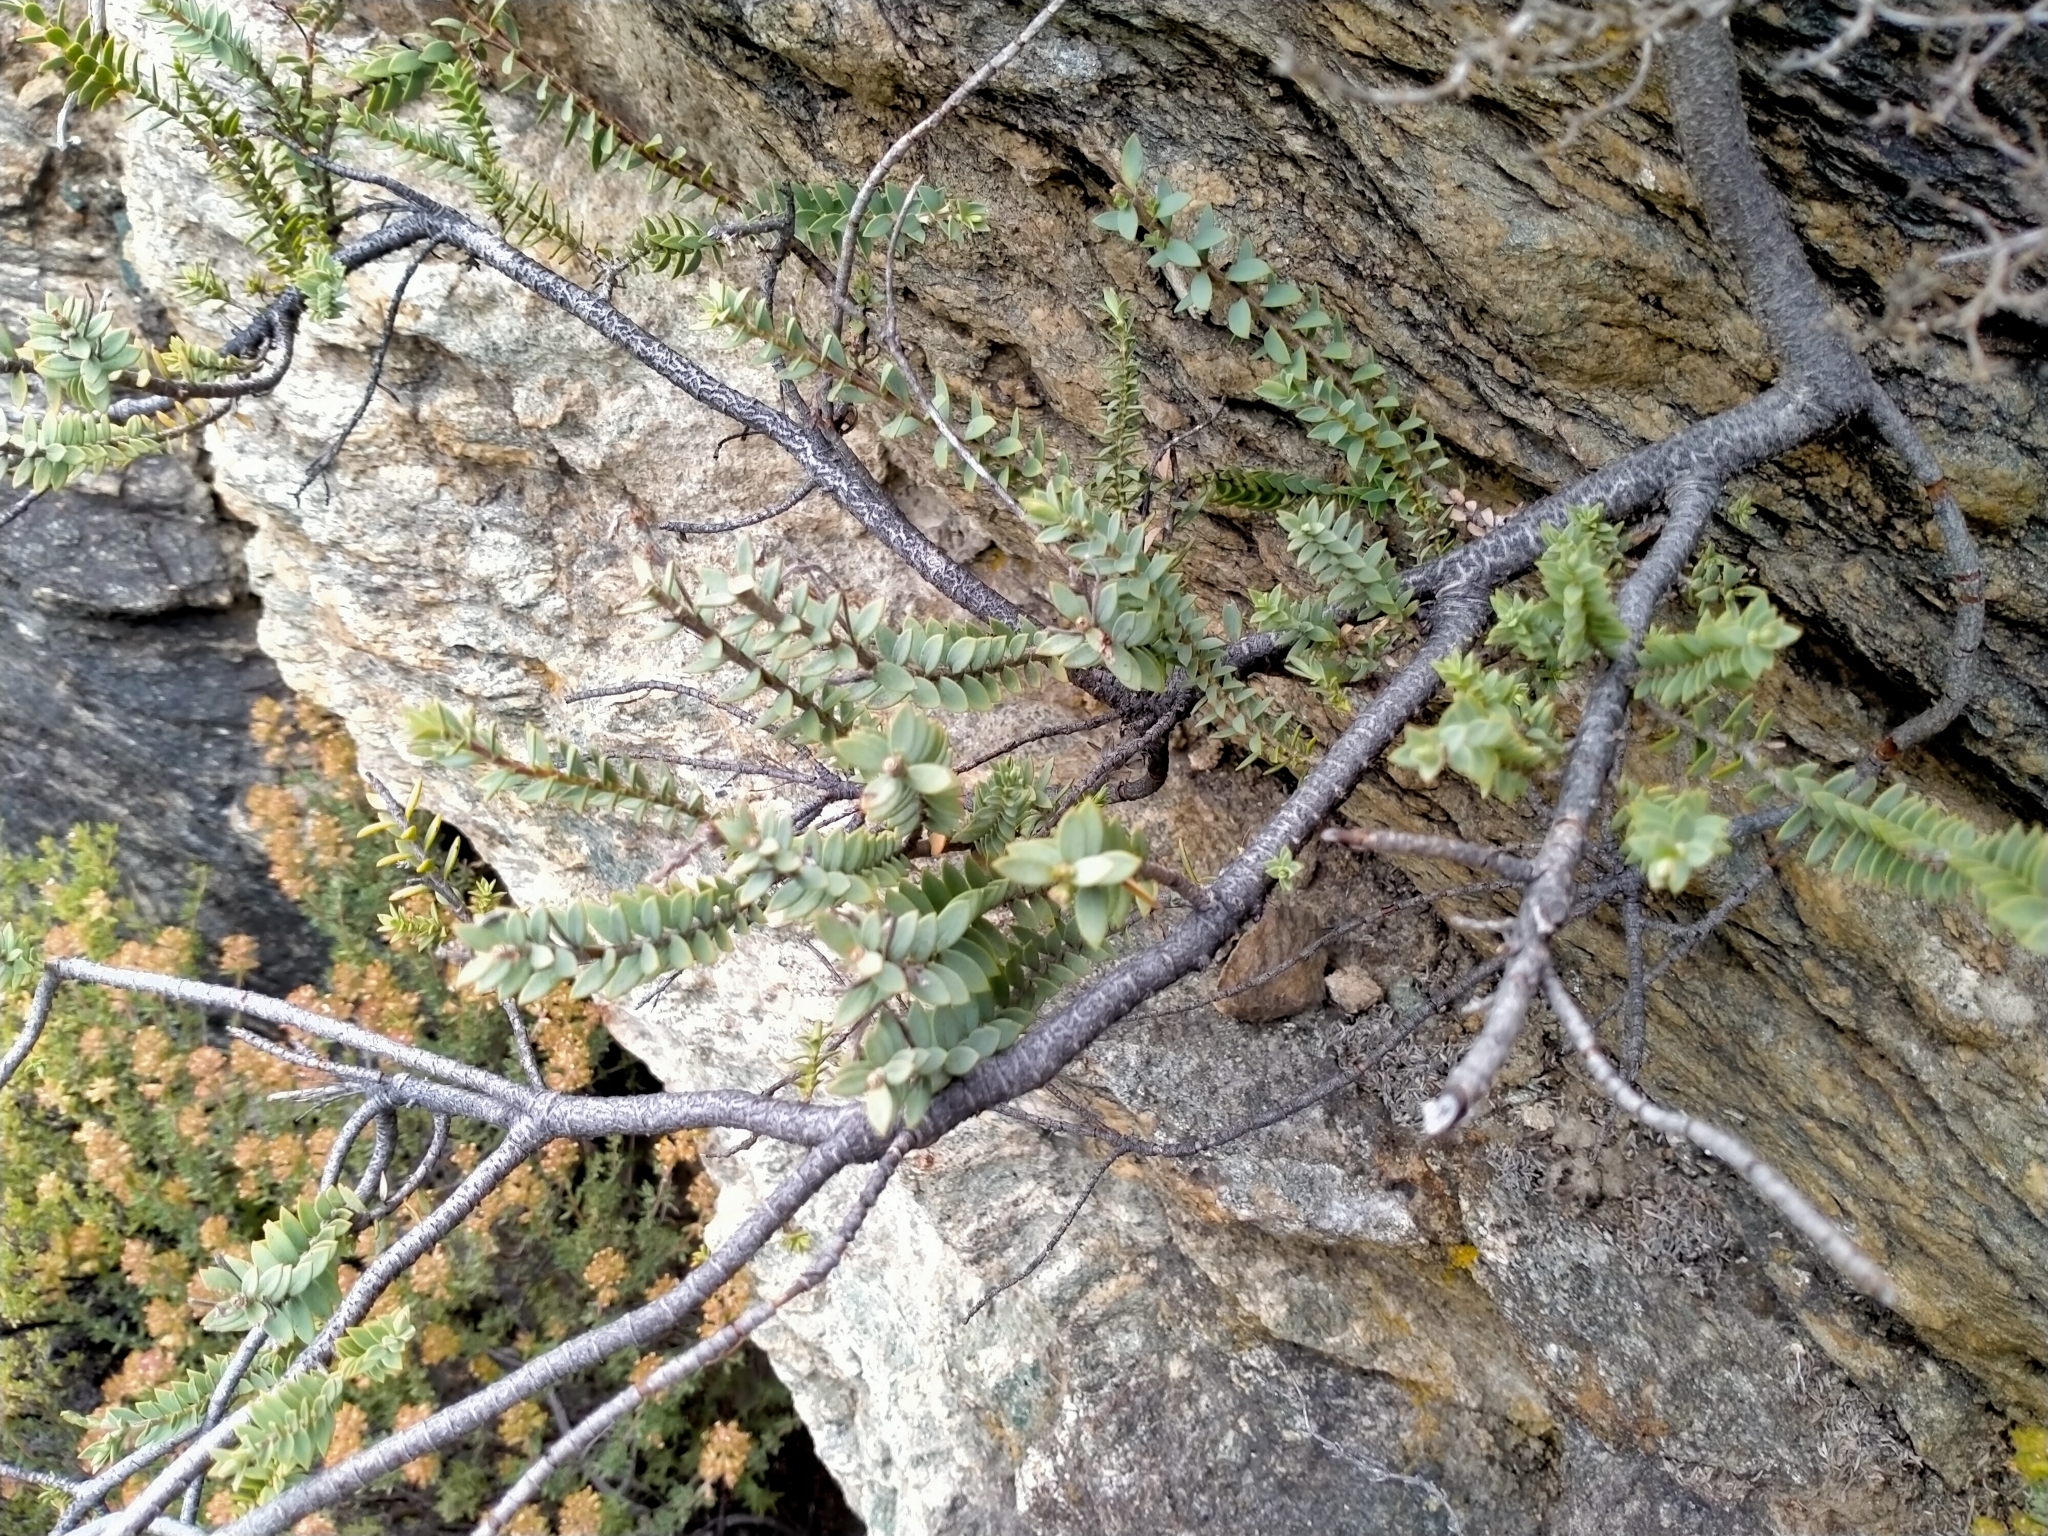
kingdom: Plantae
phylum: Tracheophyta
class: Magnoliopsida
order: Lamiales
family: Plantaginaceae
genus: Veronica
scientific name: Veronica pimeleoides
